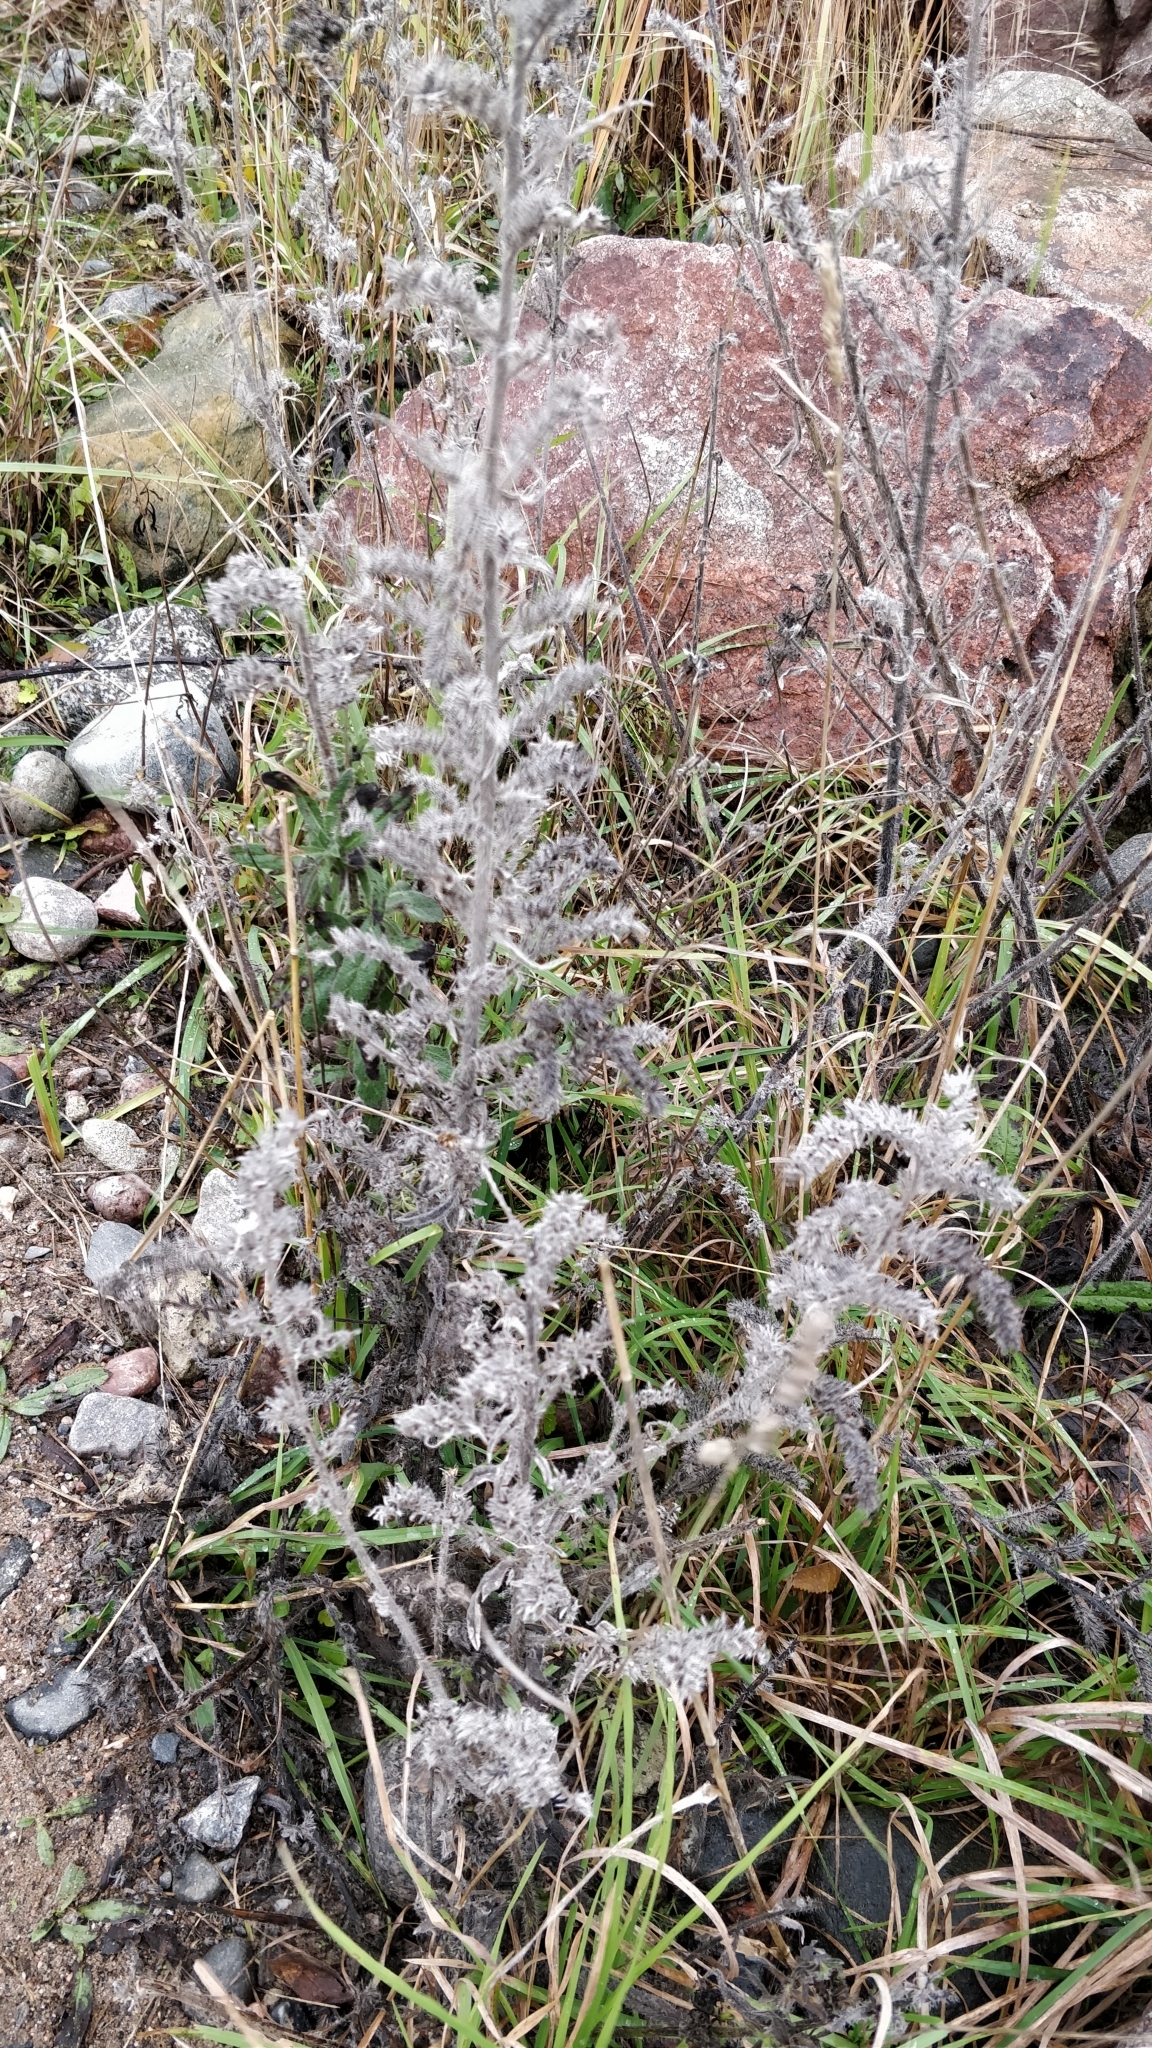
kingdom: Plantae
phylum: Tracheophyta
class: Magnoliopsida
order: Boraginales
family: Boraginaceae
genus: Echium
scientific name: Echium vulgare
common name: Common viper's bugloss
